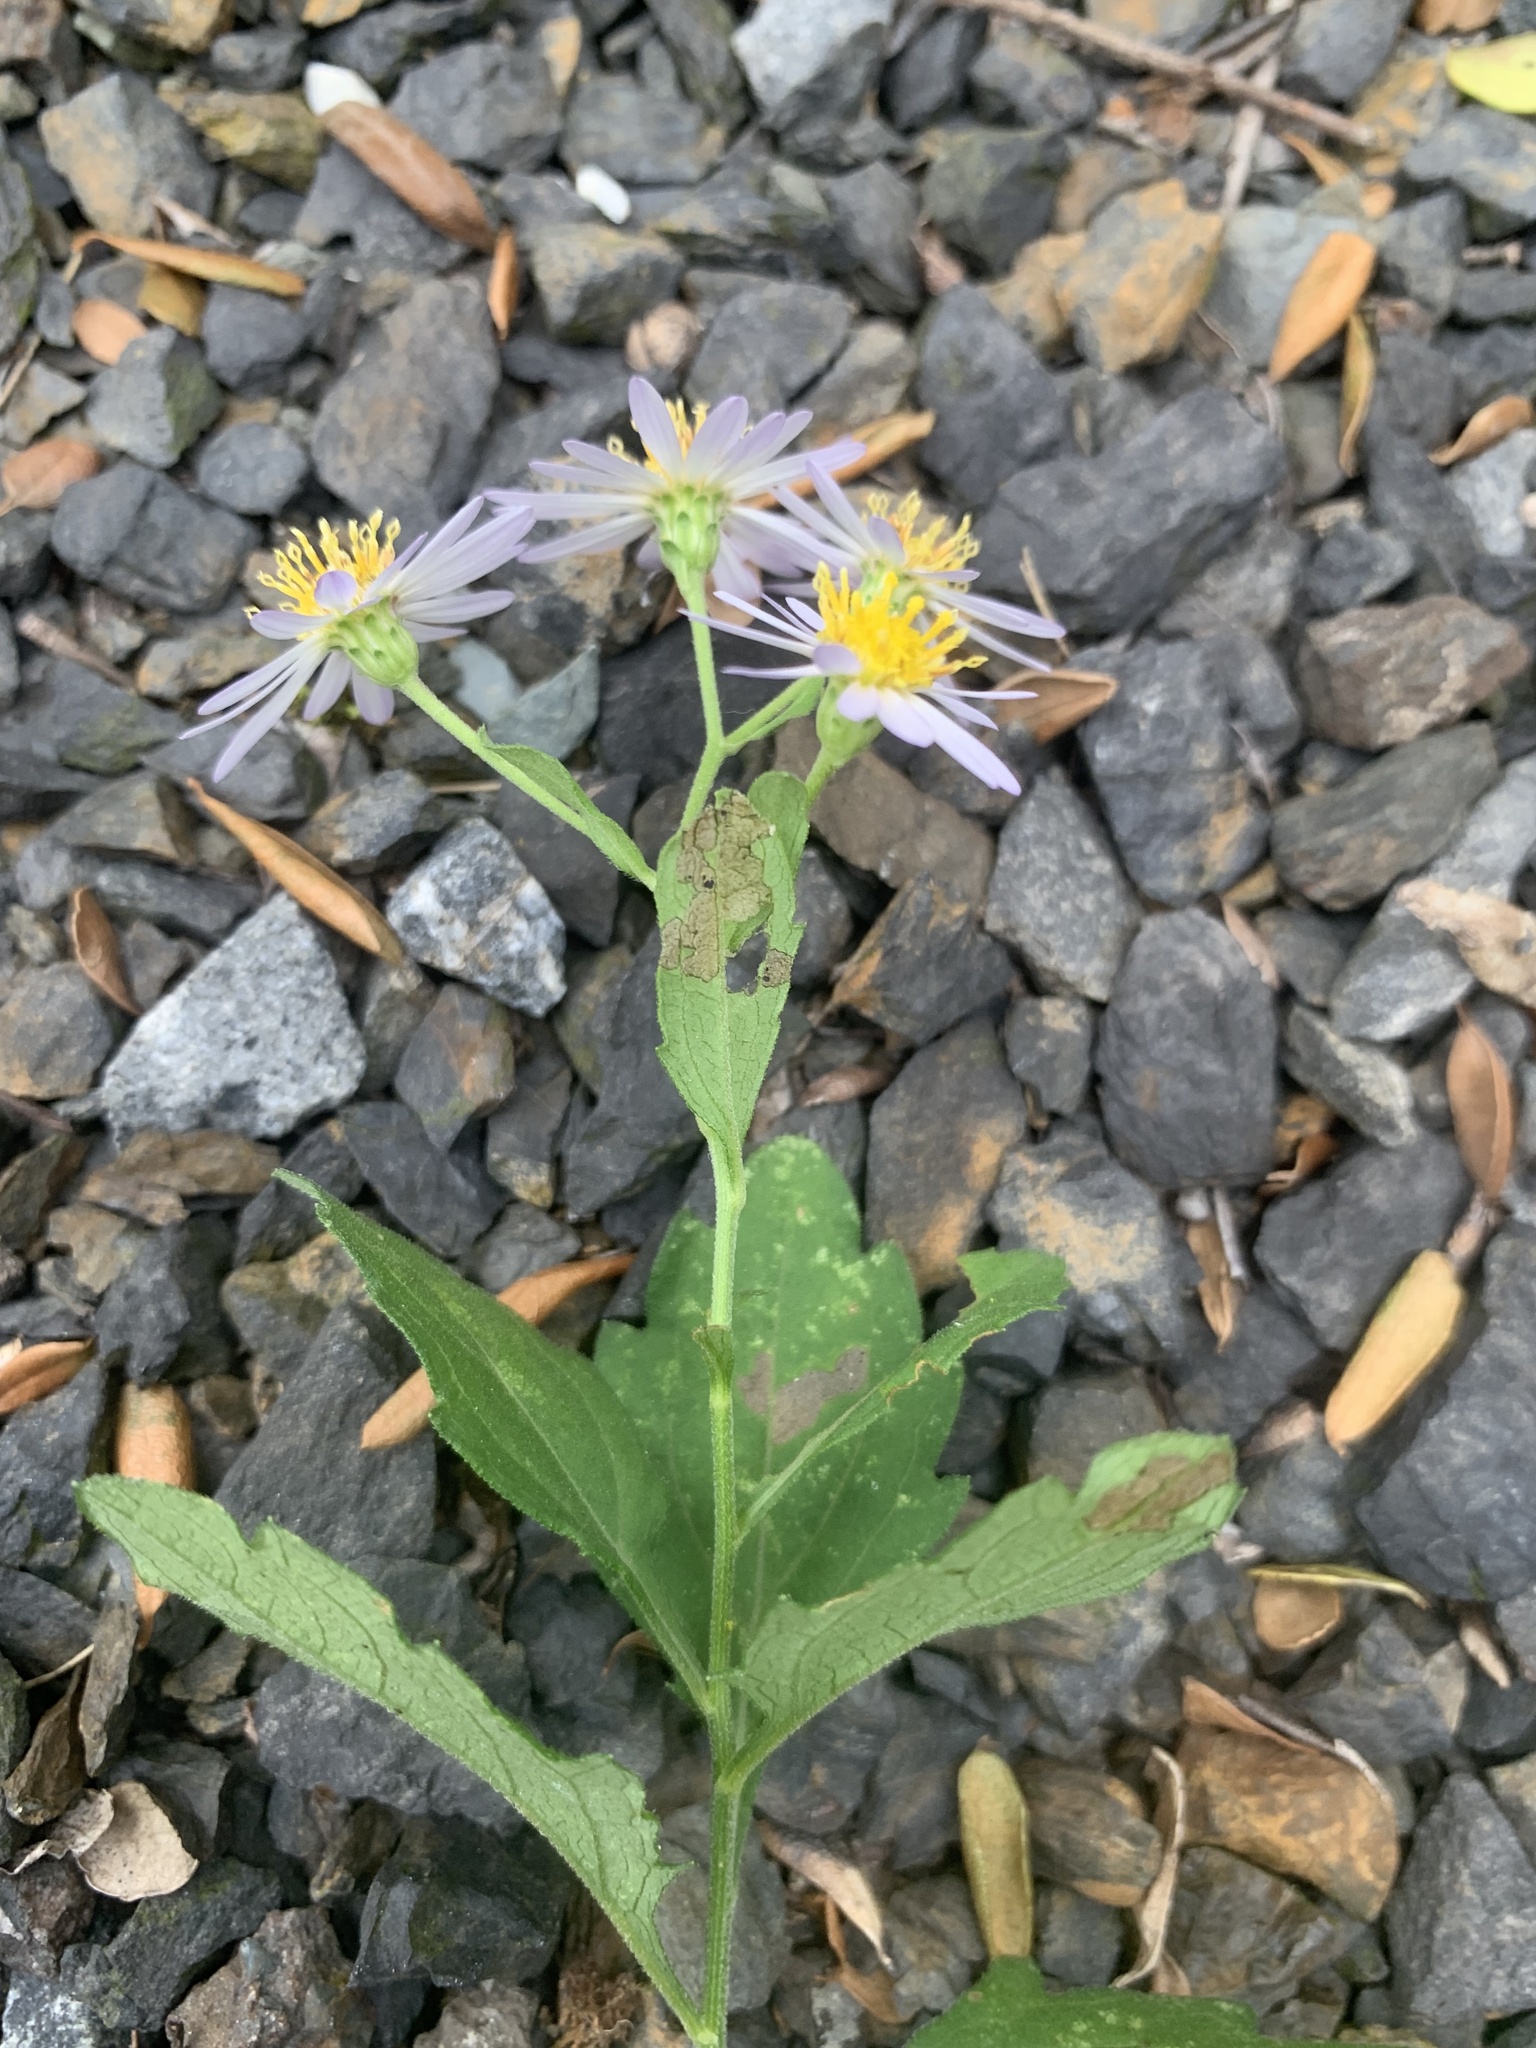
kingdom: Plantae
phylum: Tracheophyta
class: Magnoliopsida
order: Asterales
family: Asteraceae
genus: Aster
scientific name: Aster microcephalus
